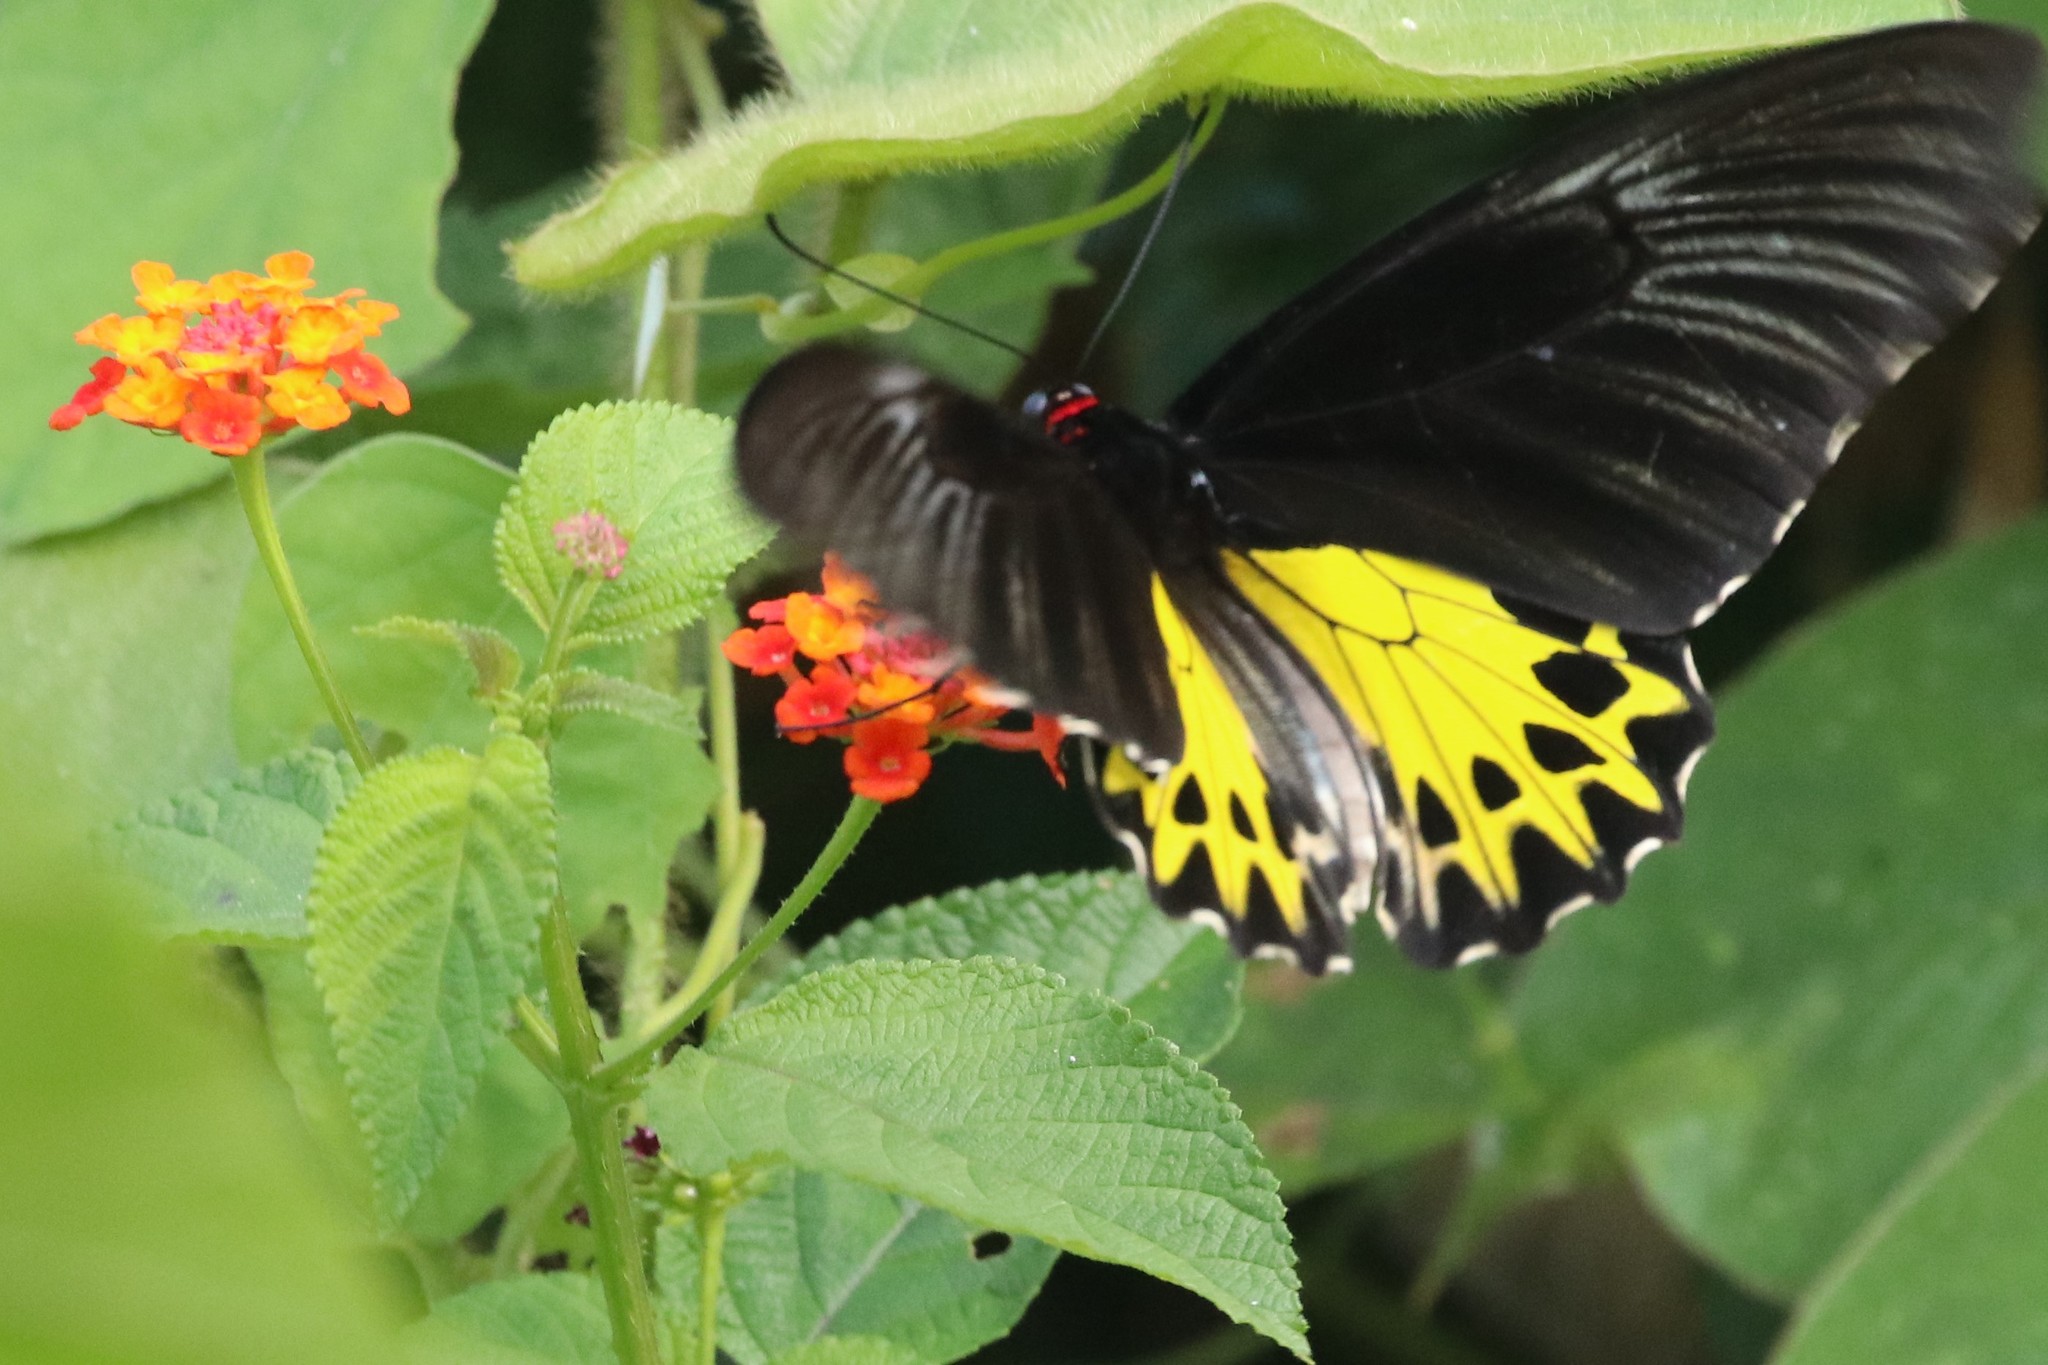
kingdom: Animalia
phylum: Arthropoda
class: Insecta
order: Lepidoptera
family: Papilionidae
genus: Troides
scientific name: Troides helena
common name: Common birdwing
